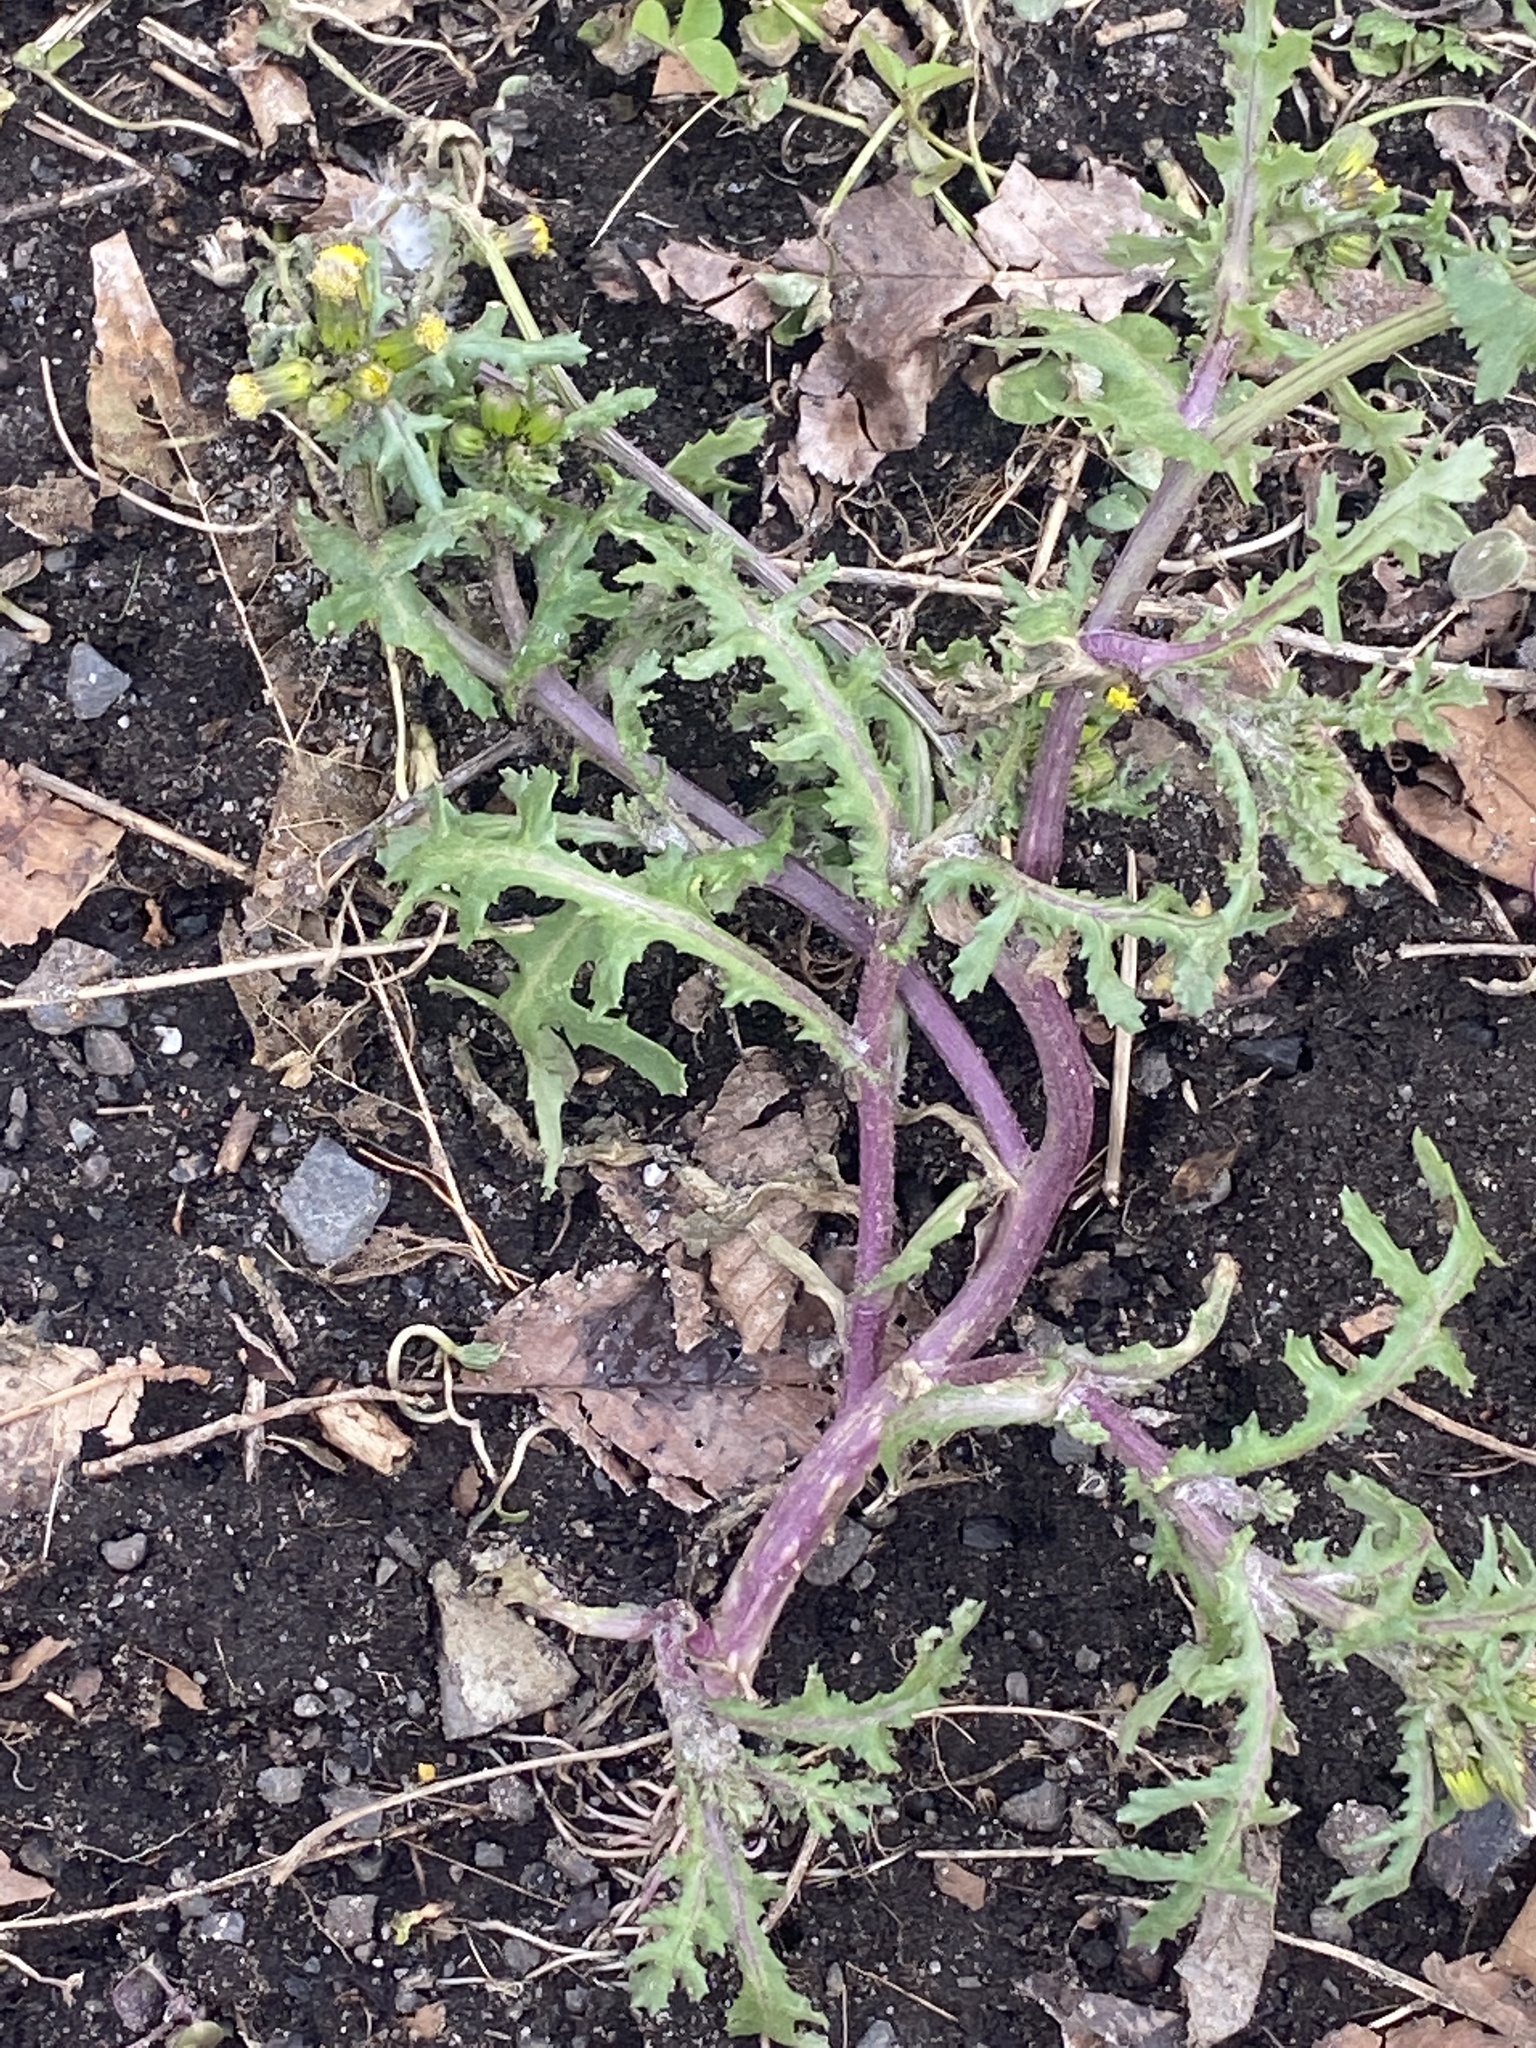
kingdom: Plantae
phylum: Tracheophyta
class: Magnoliopsida
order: Asterales
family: Asteraceae
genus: Senecio
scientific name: Senecio vulgaris
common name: Old-man-in-the-spring
